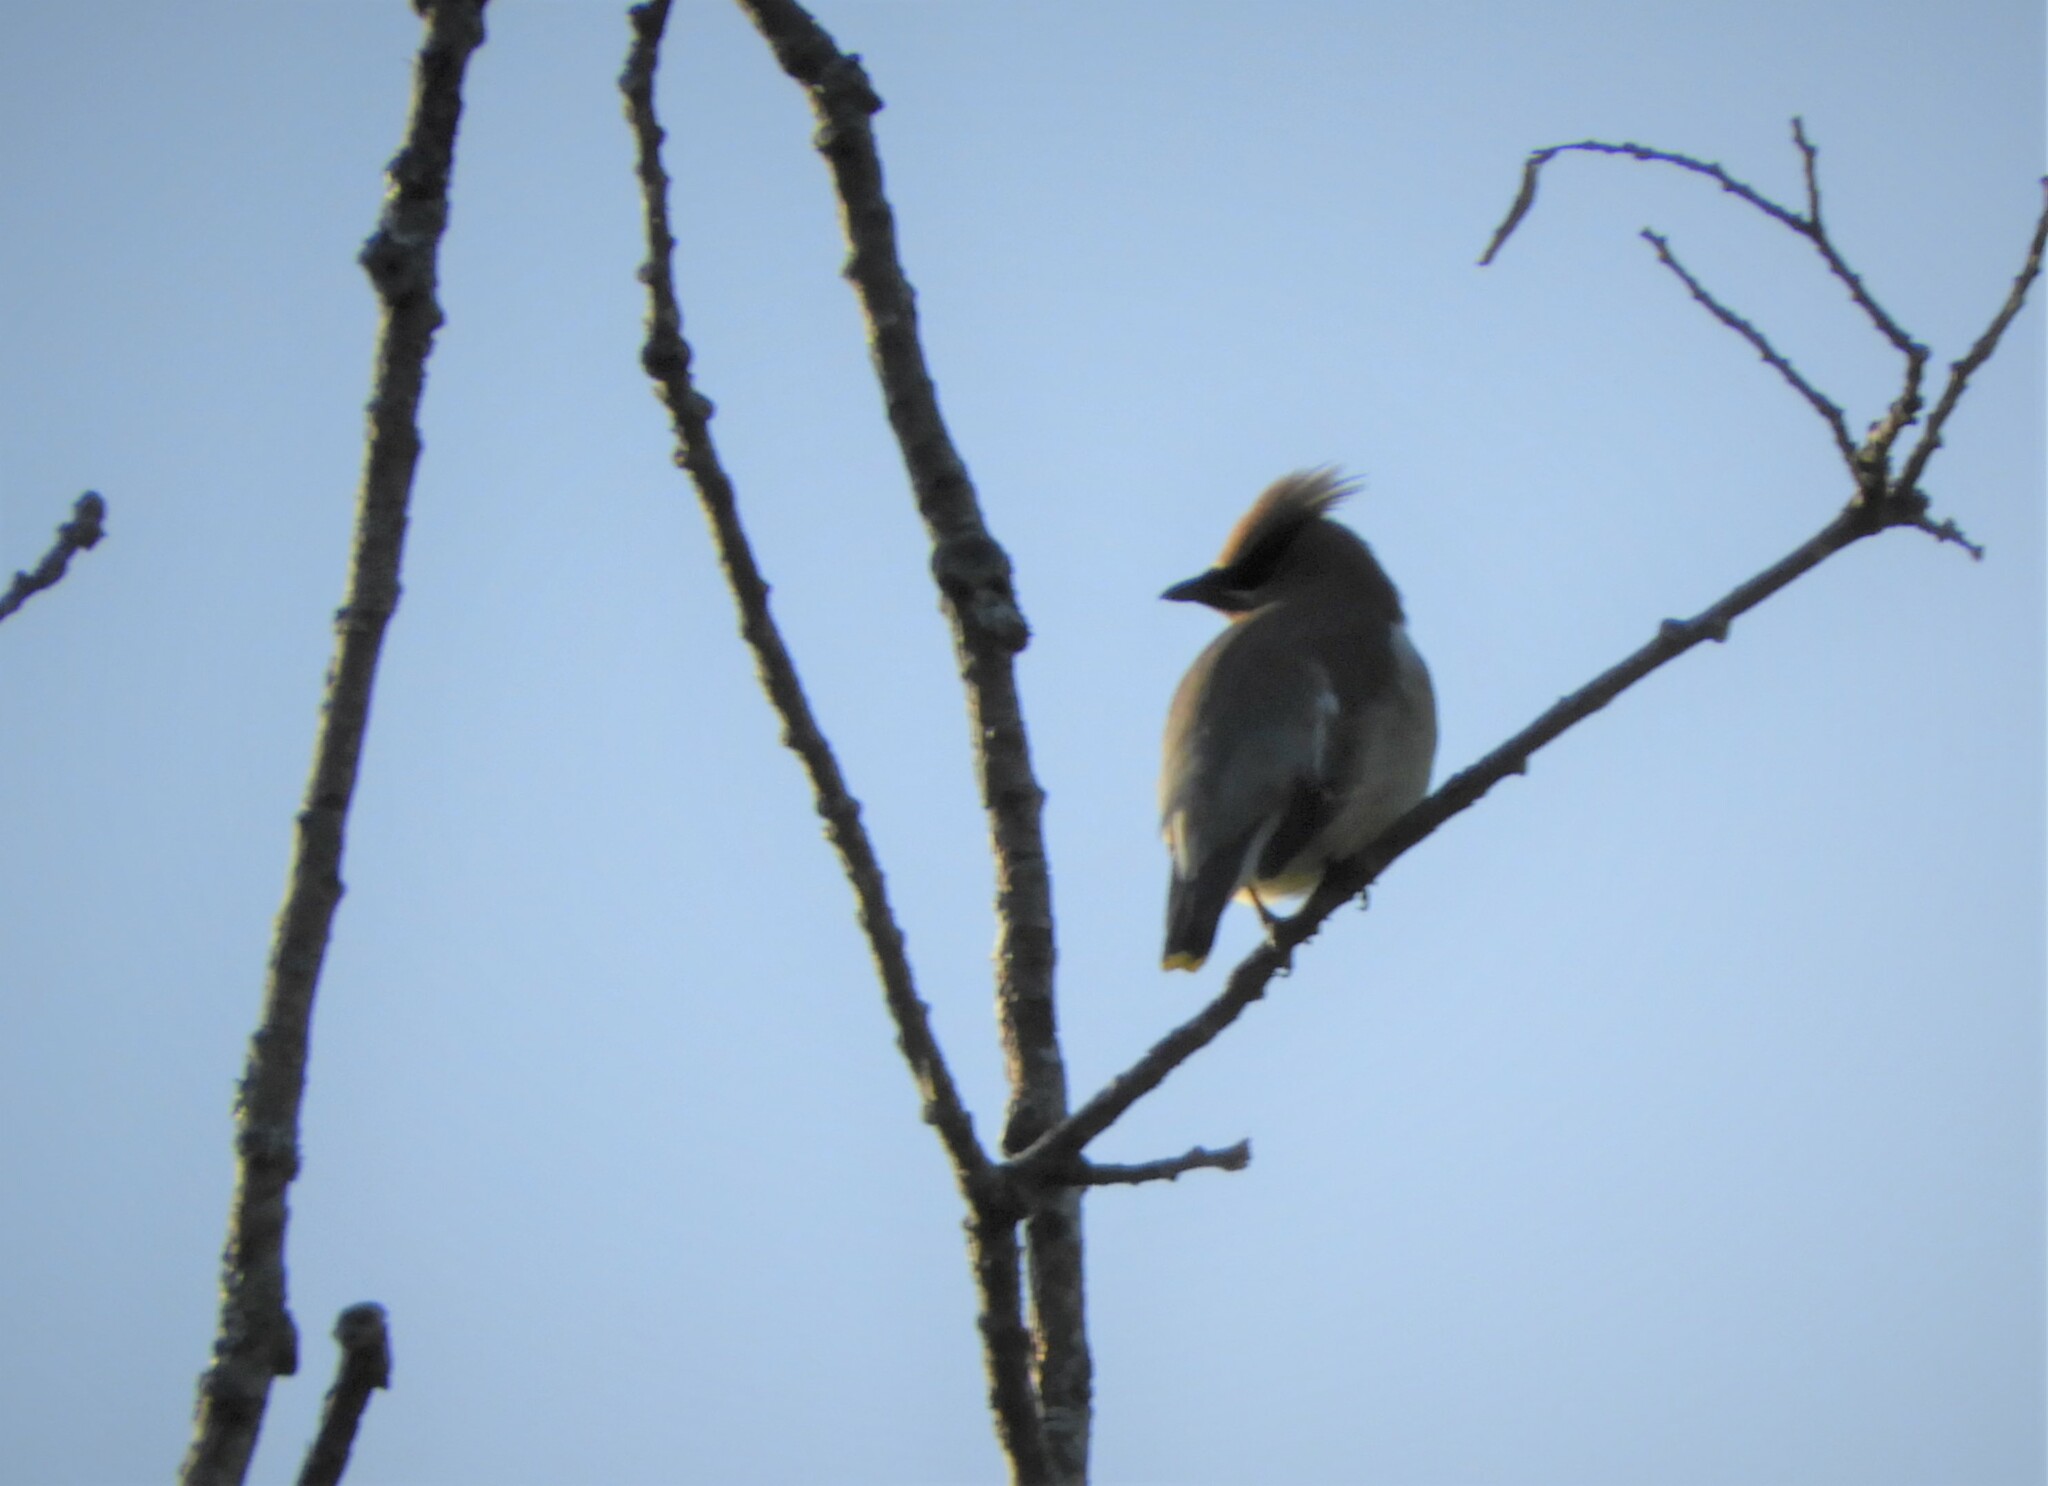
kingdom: Animalia
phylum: Chordata
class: Aves
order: Passeriformes
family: Bombycillidae
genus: Bombycilla
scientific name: Bombycilla cedrorum
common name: Cedar waxwing
